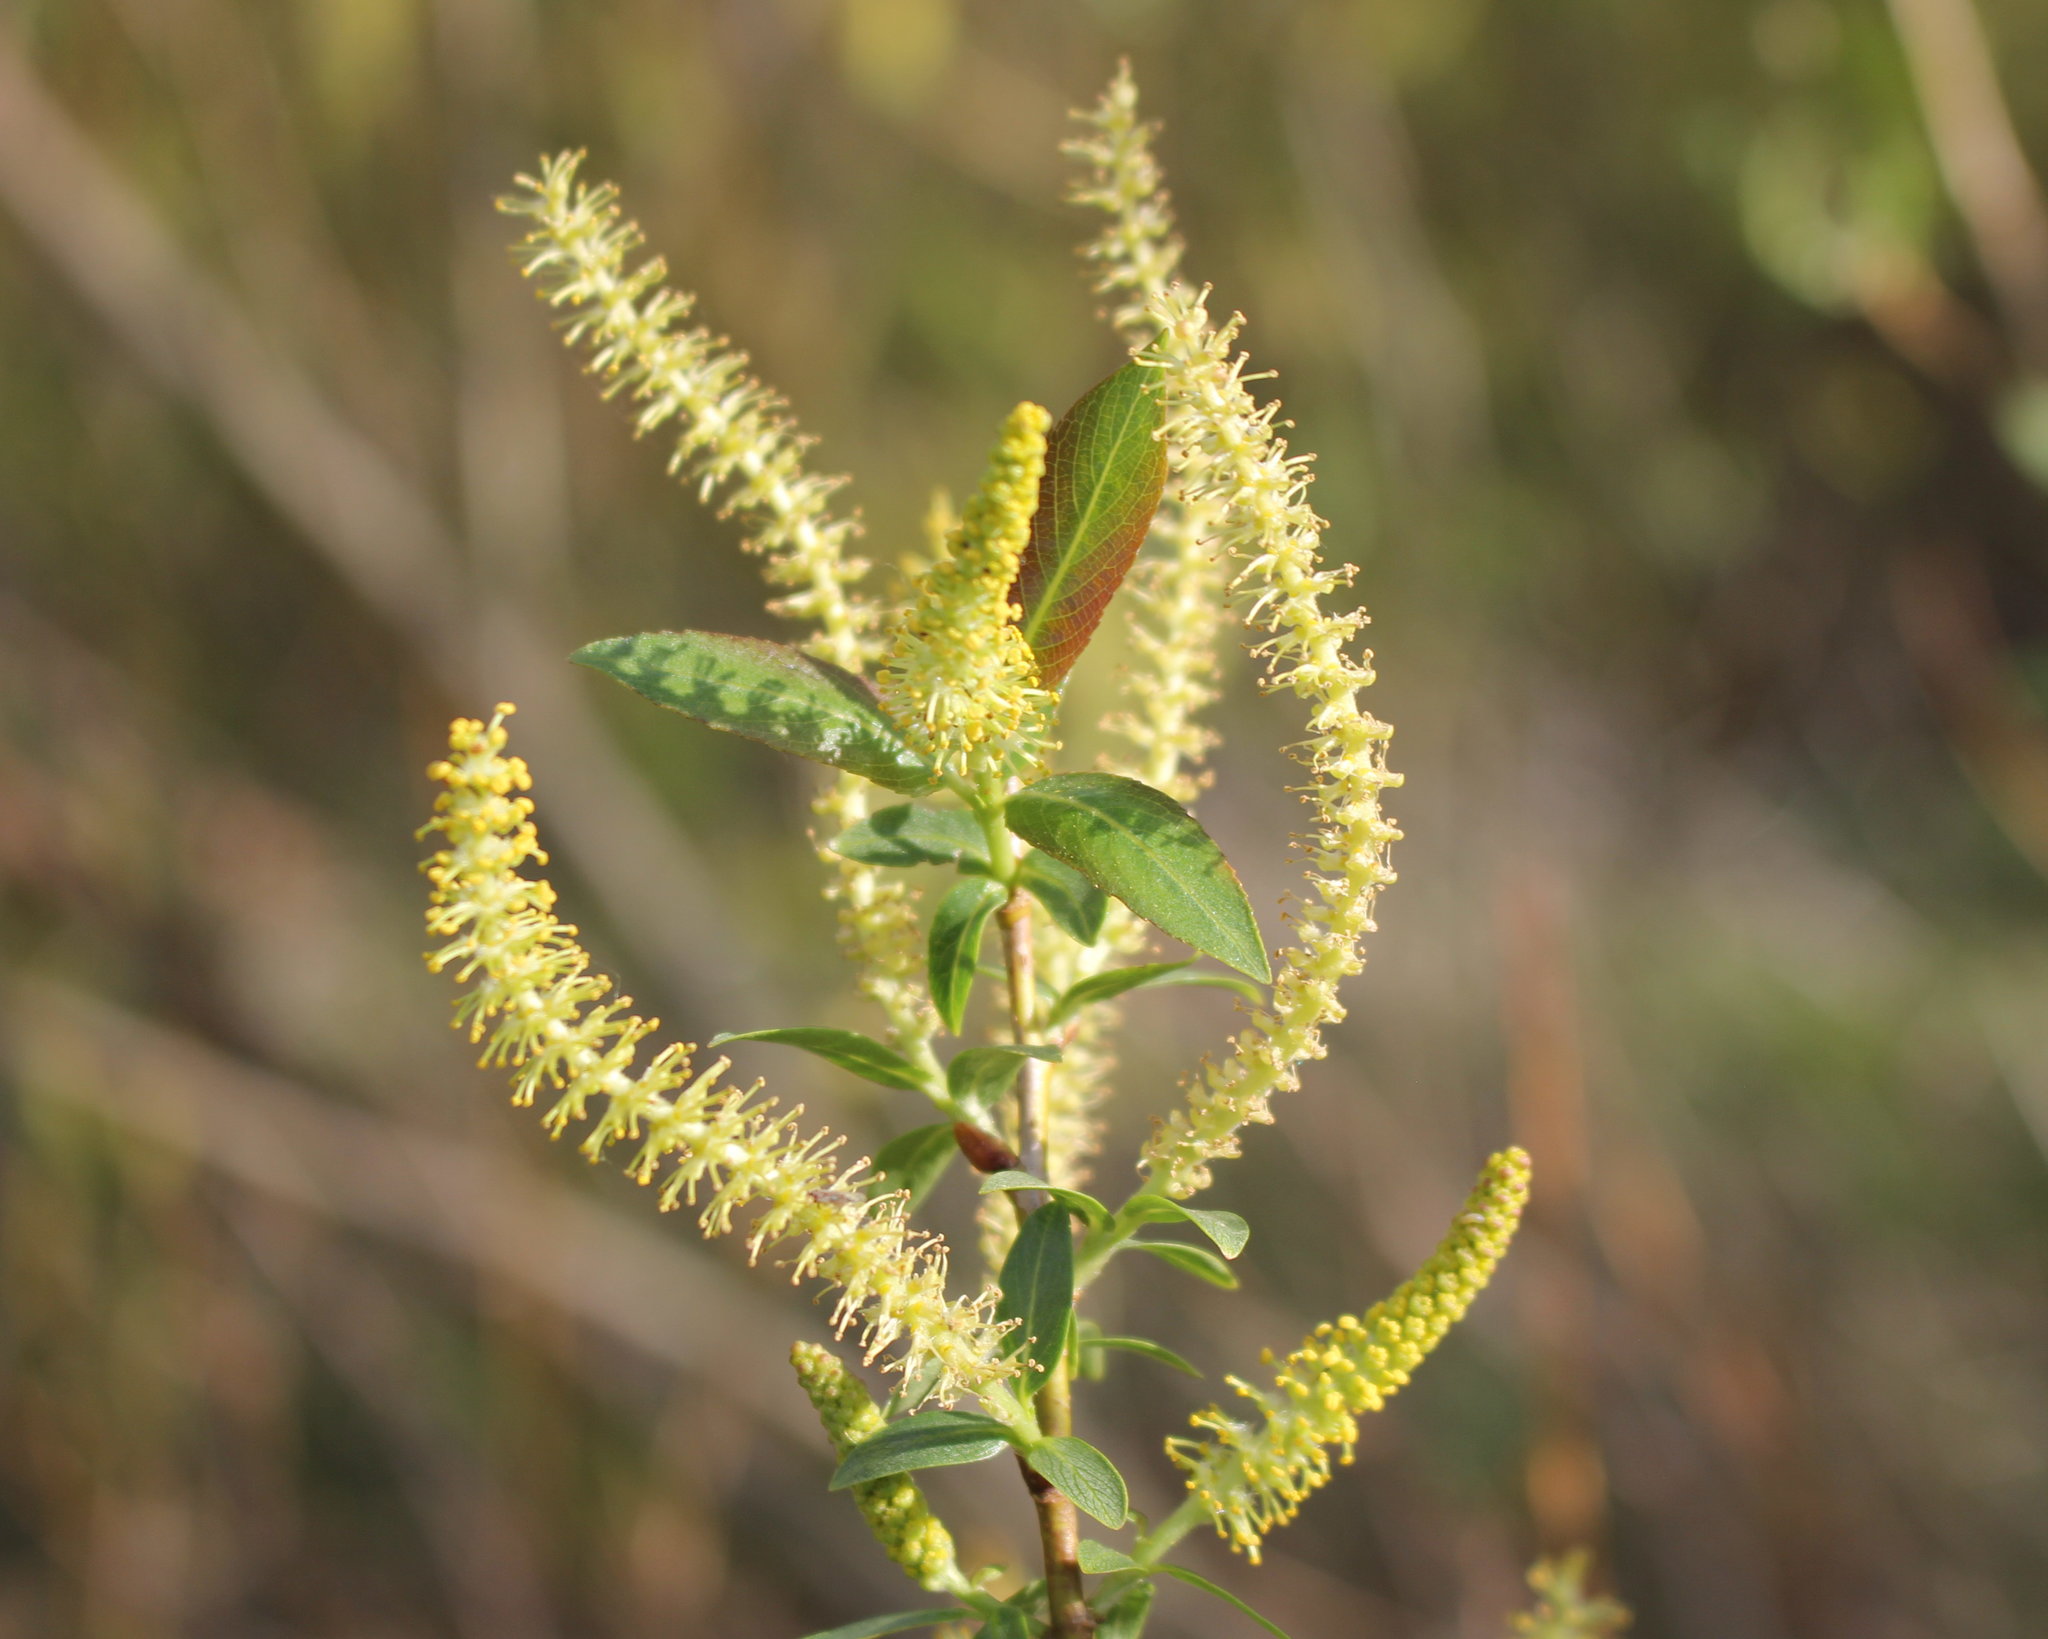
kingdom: Plantae
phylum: Tracheophyta
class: Magnoliopsida
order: Malpighiales
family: Salicaceae
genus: Salix
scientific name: Salix triandra
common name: Almond willow
